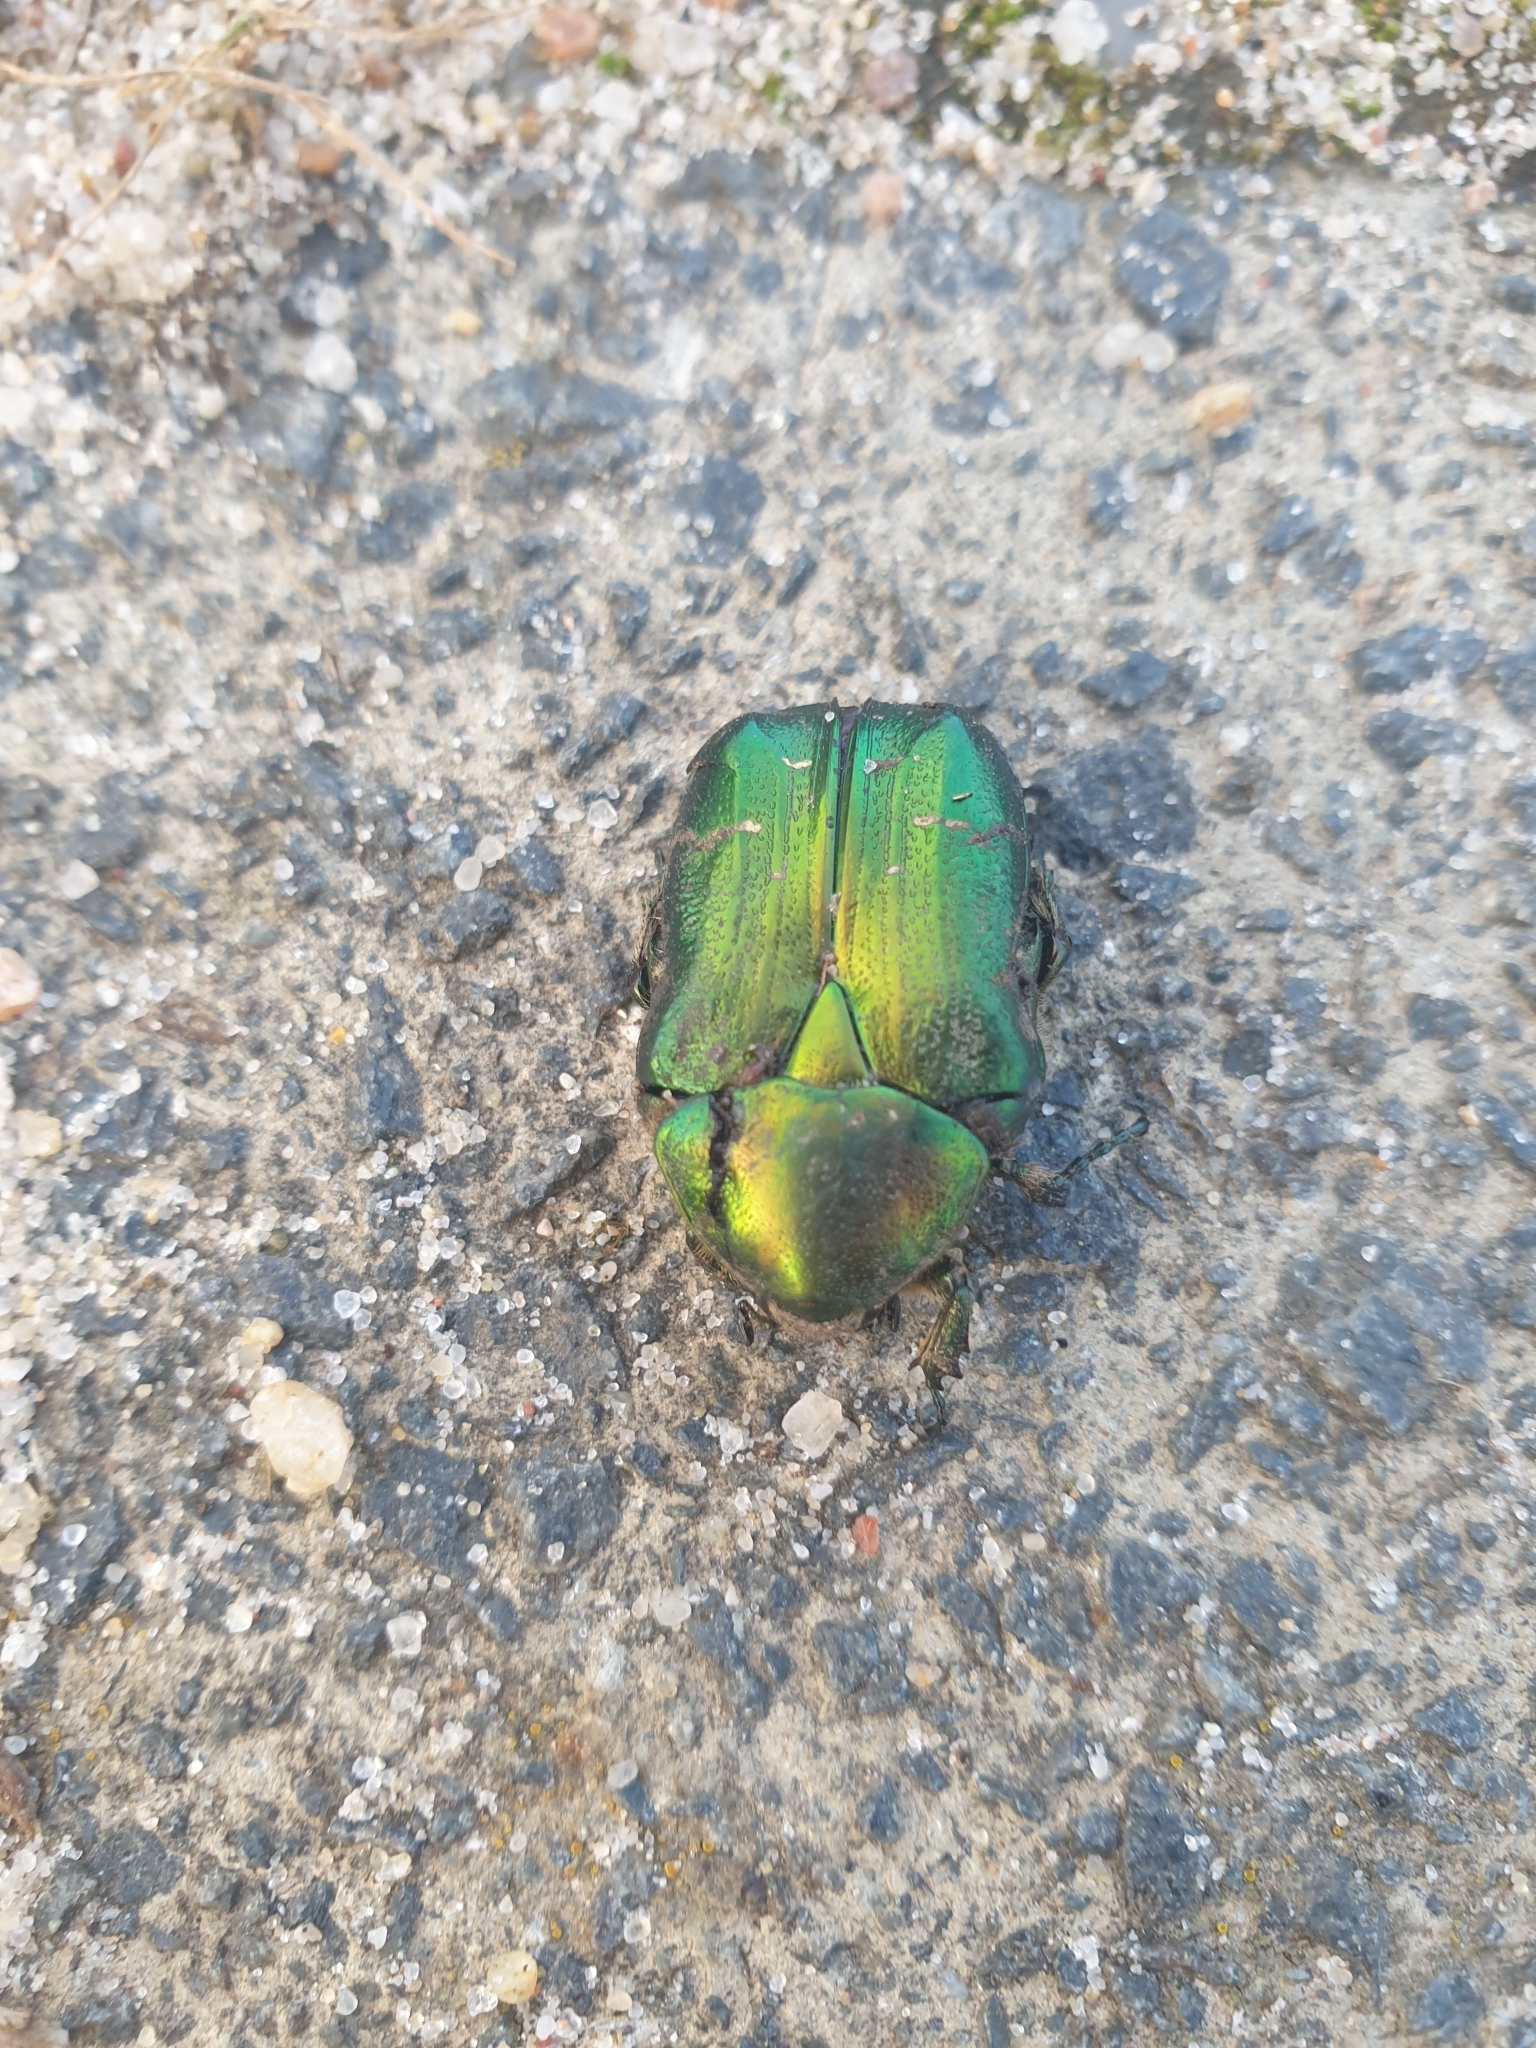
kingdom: Animalia
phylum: Arthropoda
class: Insecta
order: Coleoptera
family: Scarabaeidae
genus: Cetonia
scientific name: Cetonia aurata
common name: Rose chafer
